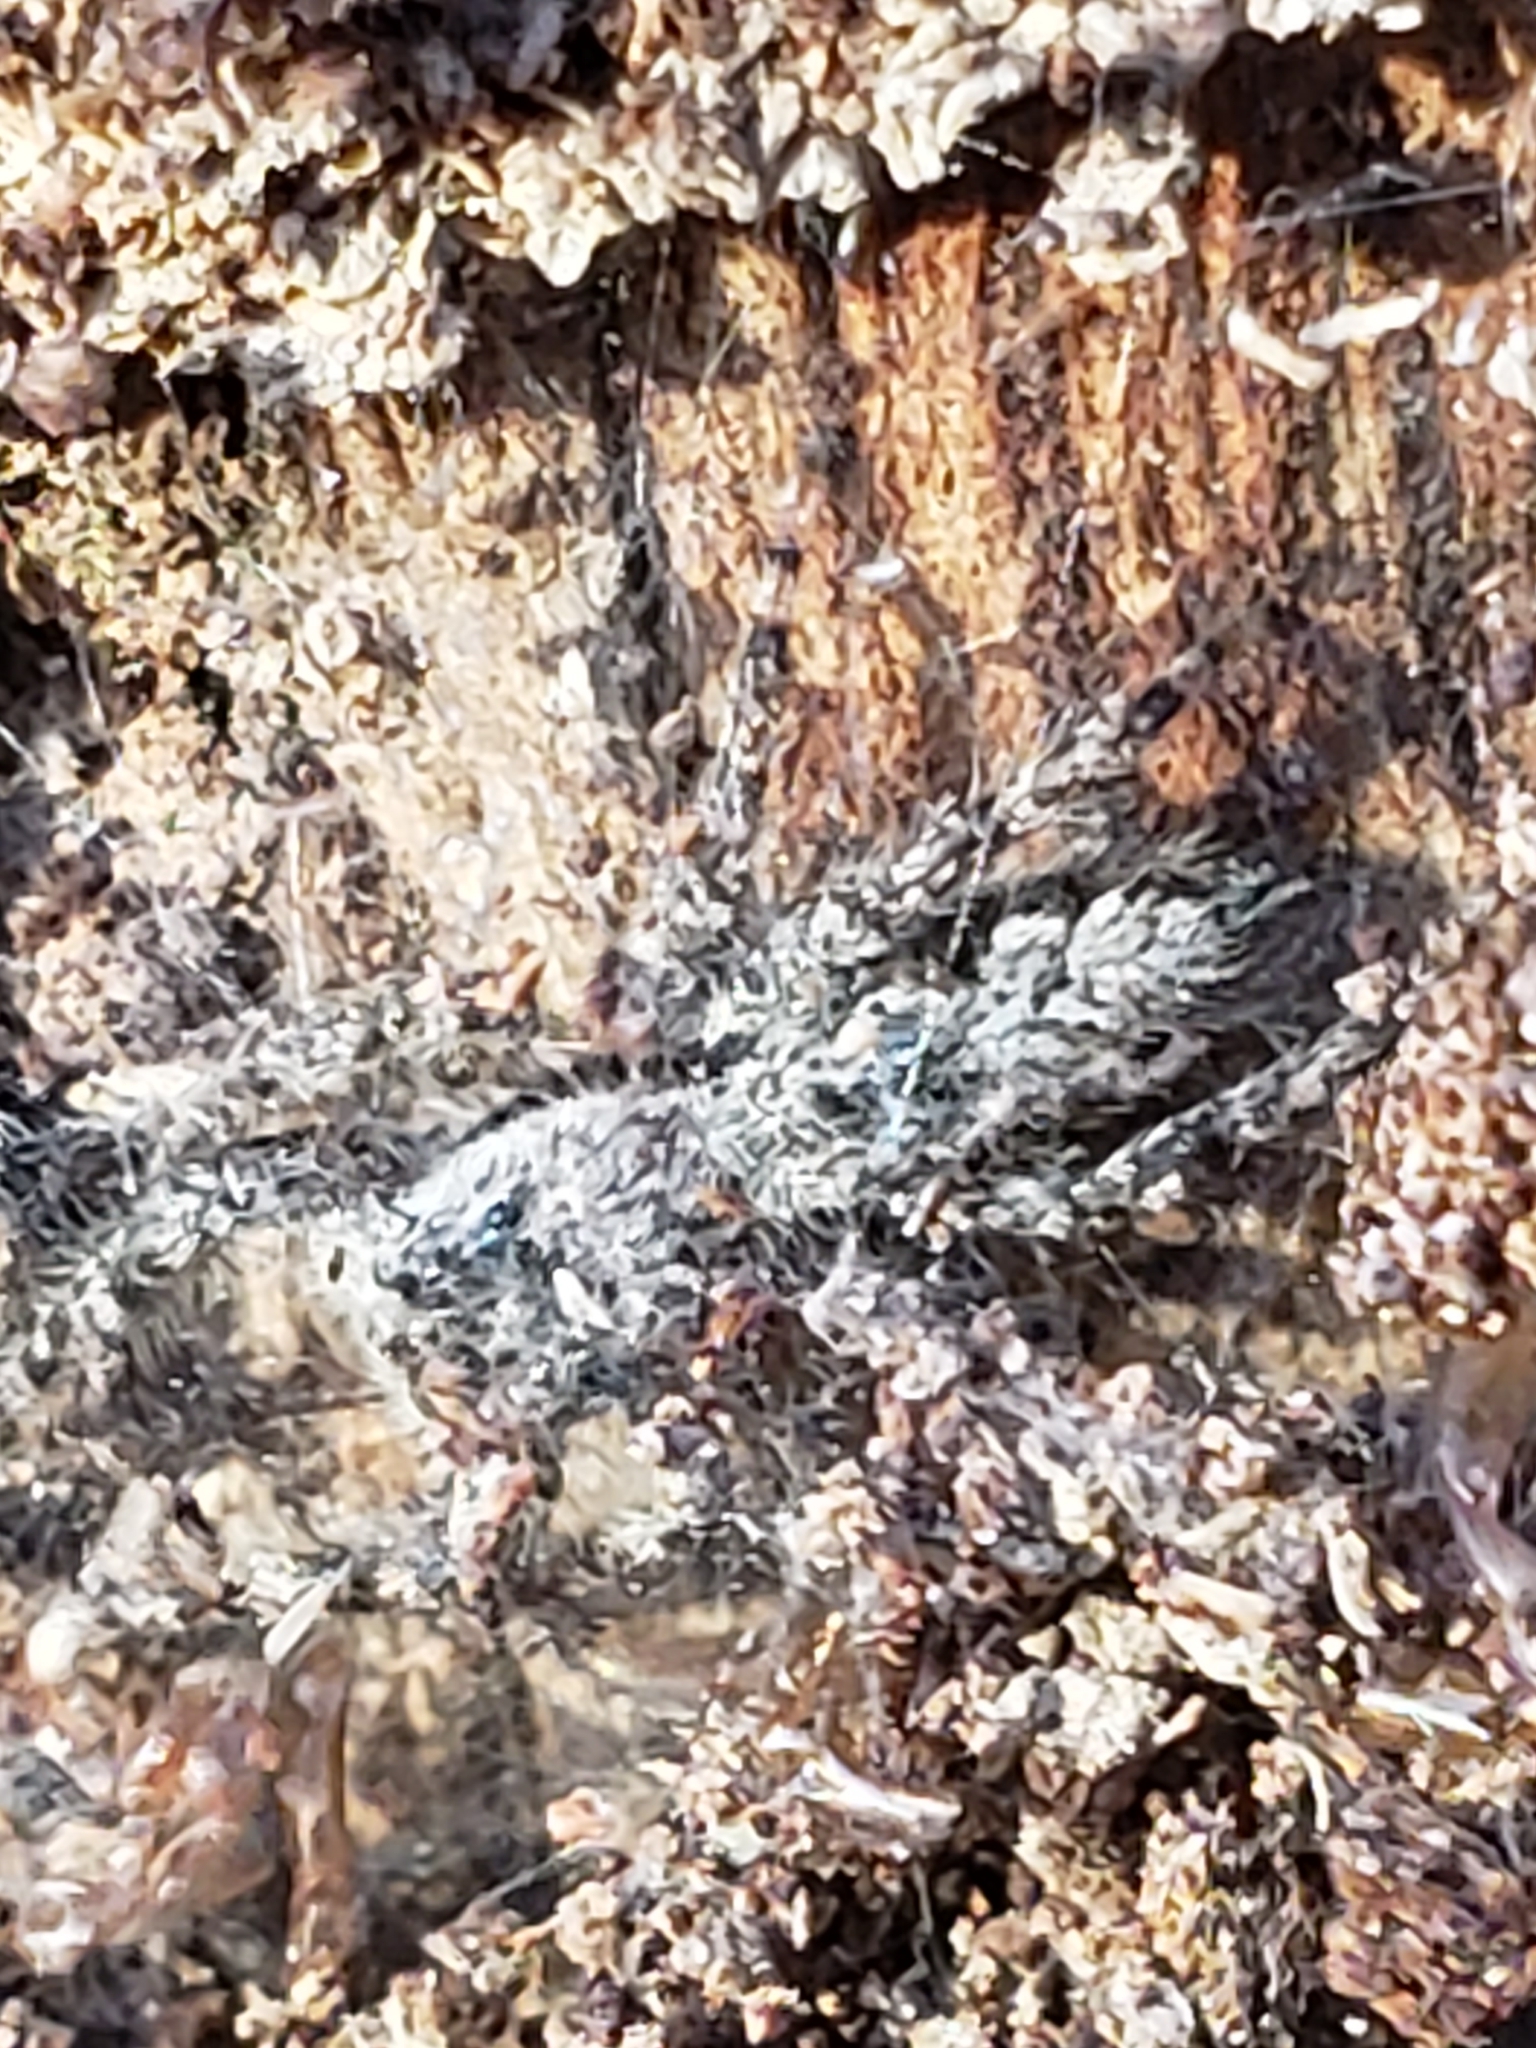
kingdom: Animalia
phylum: Arthropoda
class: Arachnida
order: Araneae
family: Salticidae
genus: Platycryptus
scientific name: Platycryptus undatus
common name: Tan jumping spider
